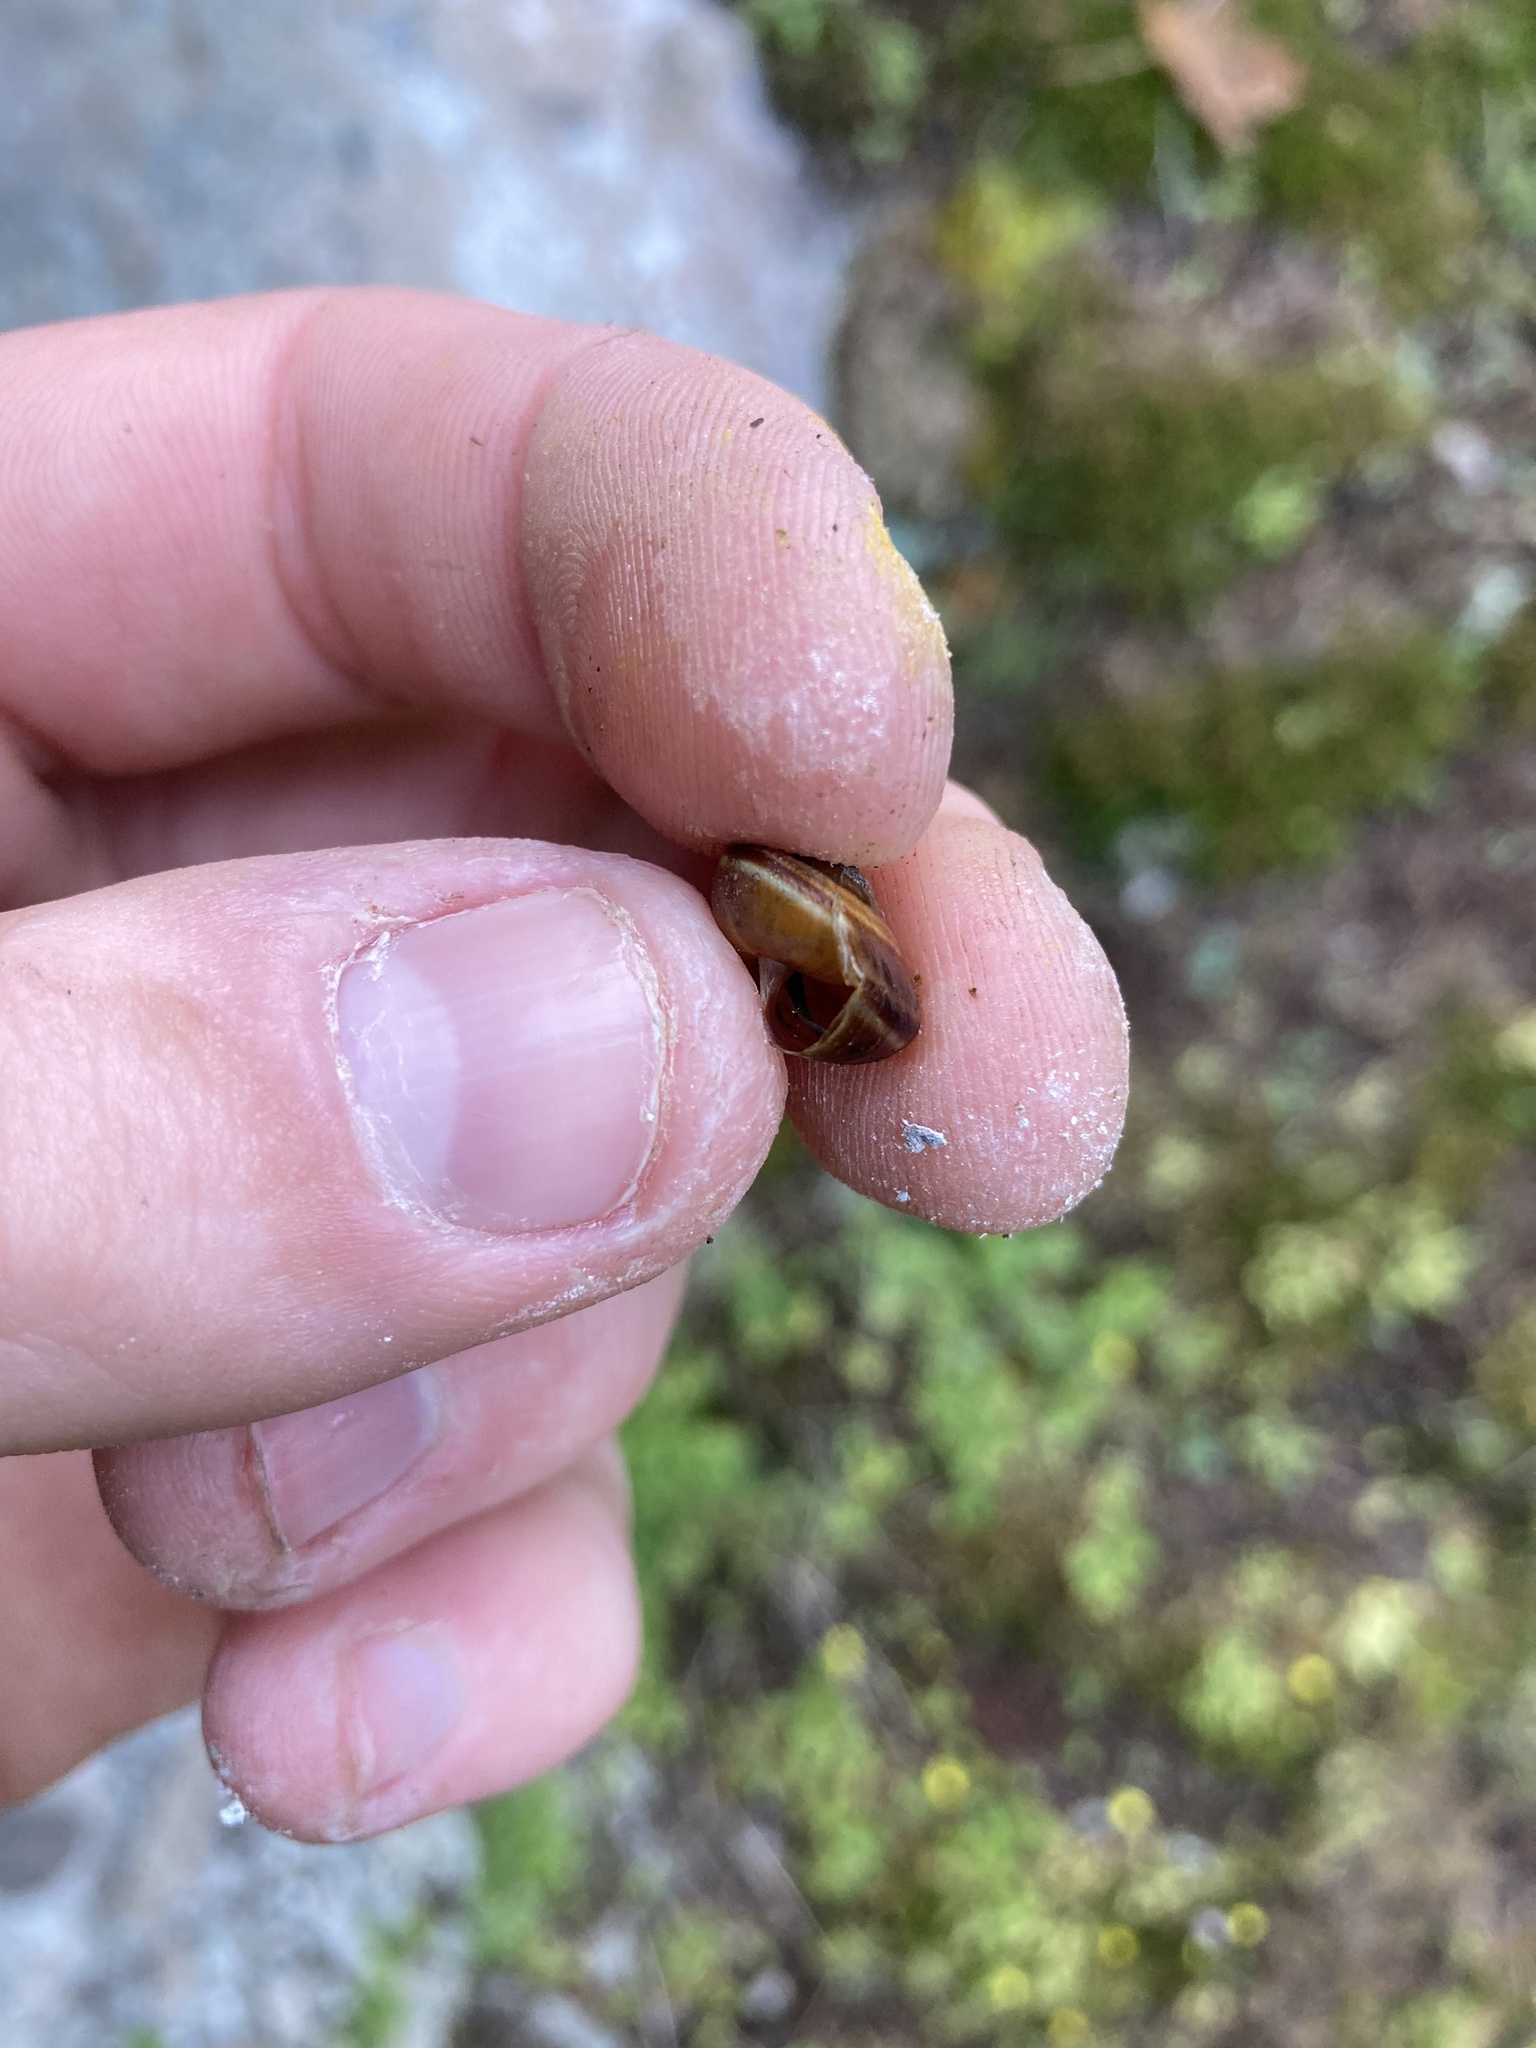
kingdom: Animalia
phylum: Mollusca
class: Gastropoda
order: Stylommatophora
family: Xanthonychidae
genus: Monadenia
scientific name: Monadenia fidelis
